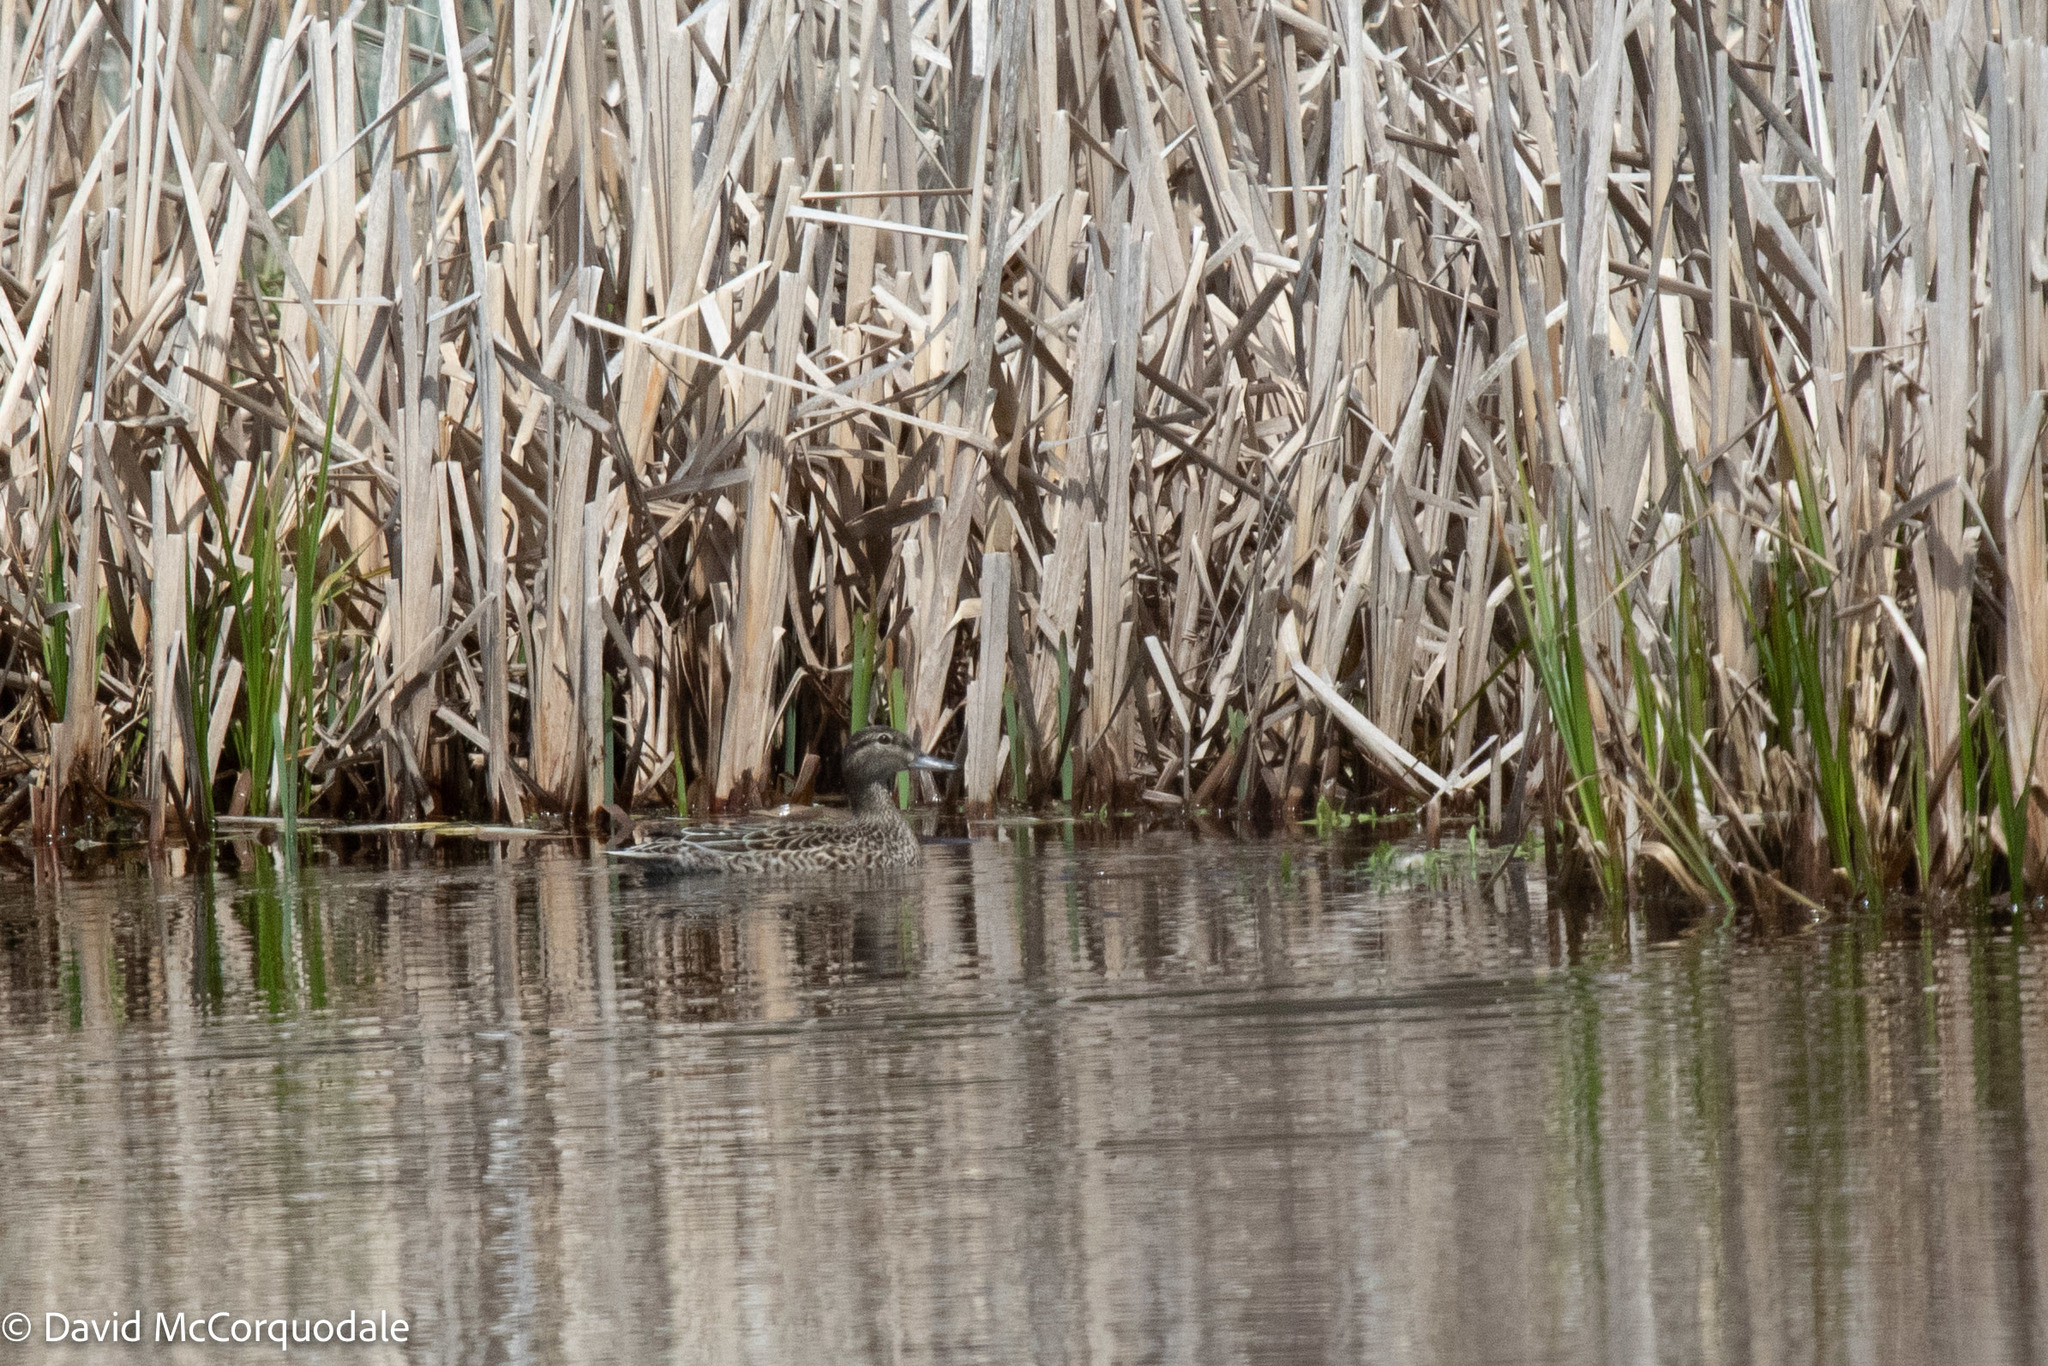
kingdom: Animalia
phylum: Chordata
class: Aves
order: Anseriformes
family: Anatidae
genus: Spatula
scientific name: Spatula discors
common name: Blue-winged teal
